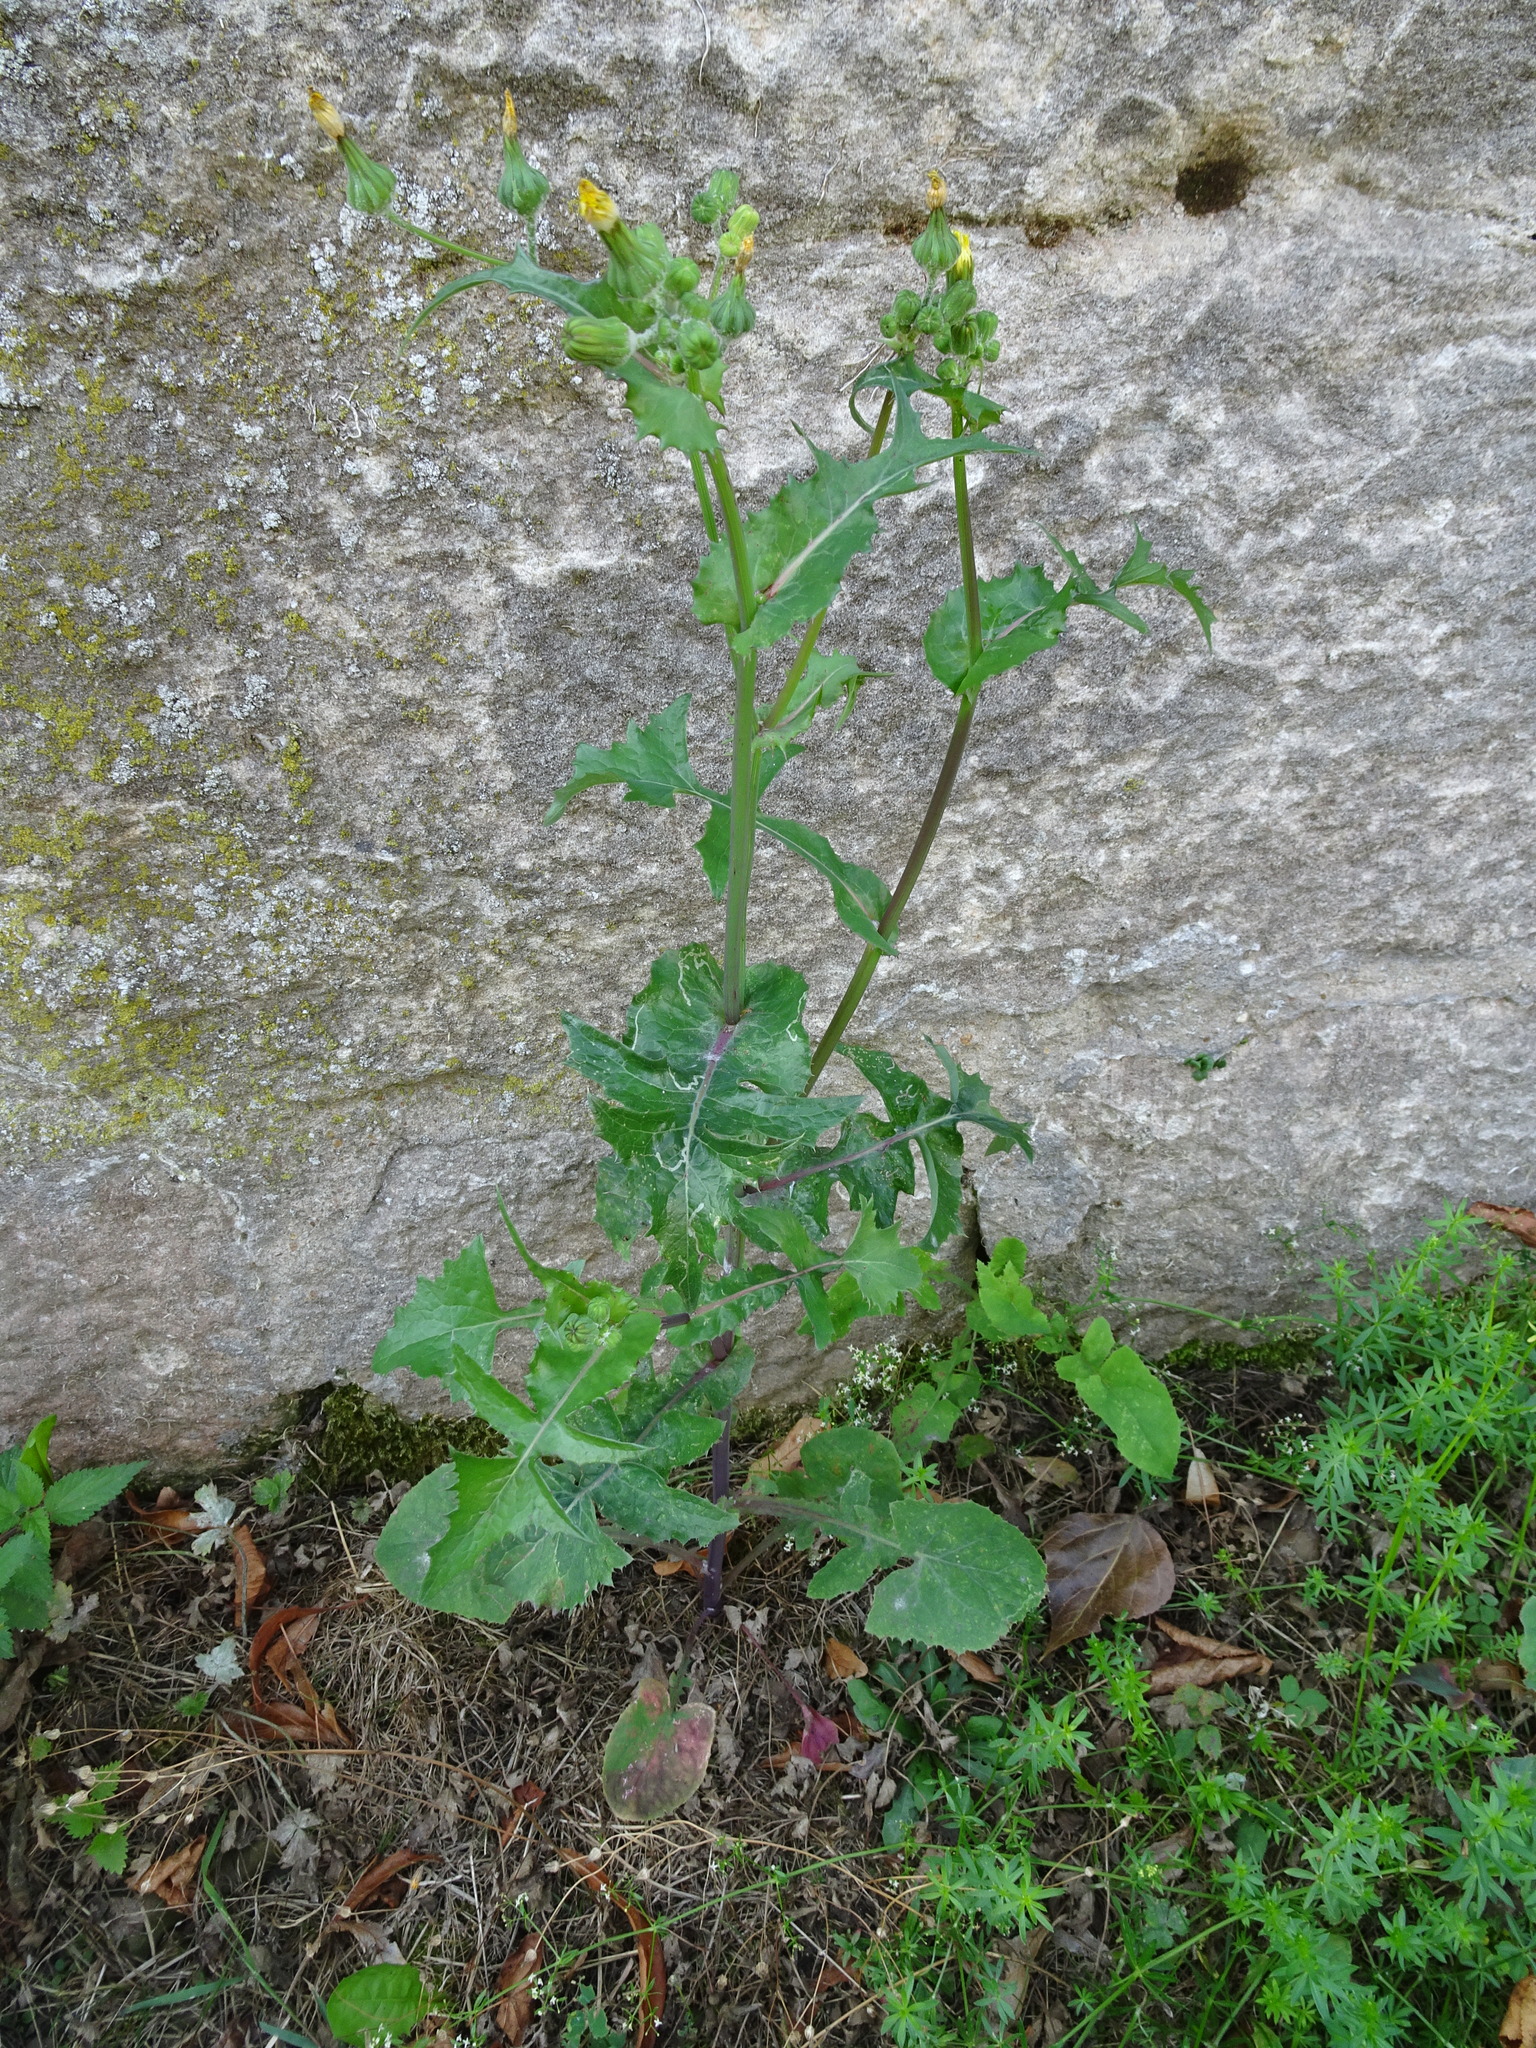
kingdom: Plantae
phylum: Tracheophyta
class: Magnoliopsida
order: Asterales
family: Asteraceae
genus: Sonchus
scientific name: Sonchus oleraceus
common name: Common sowthistle
